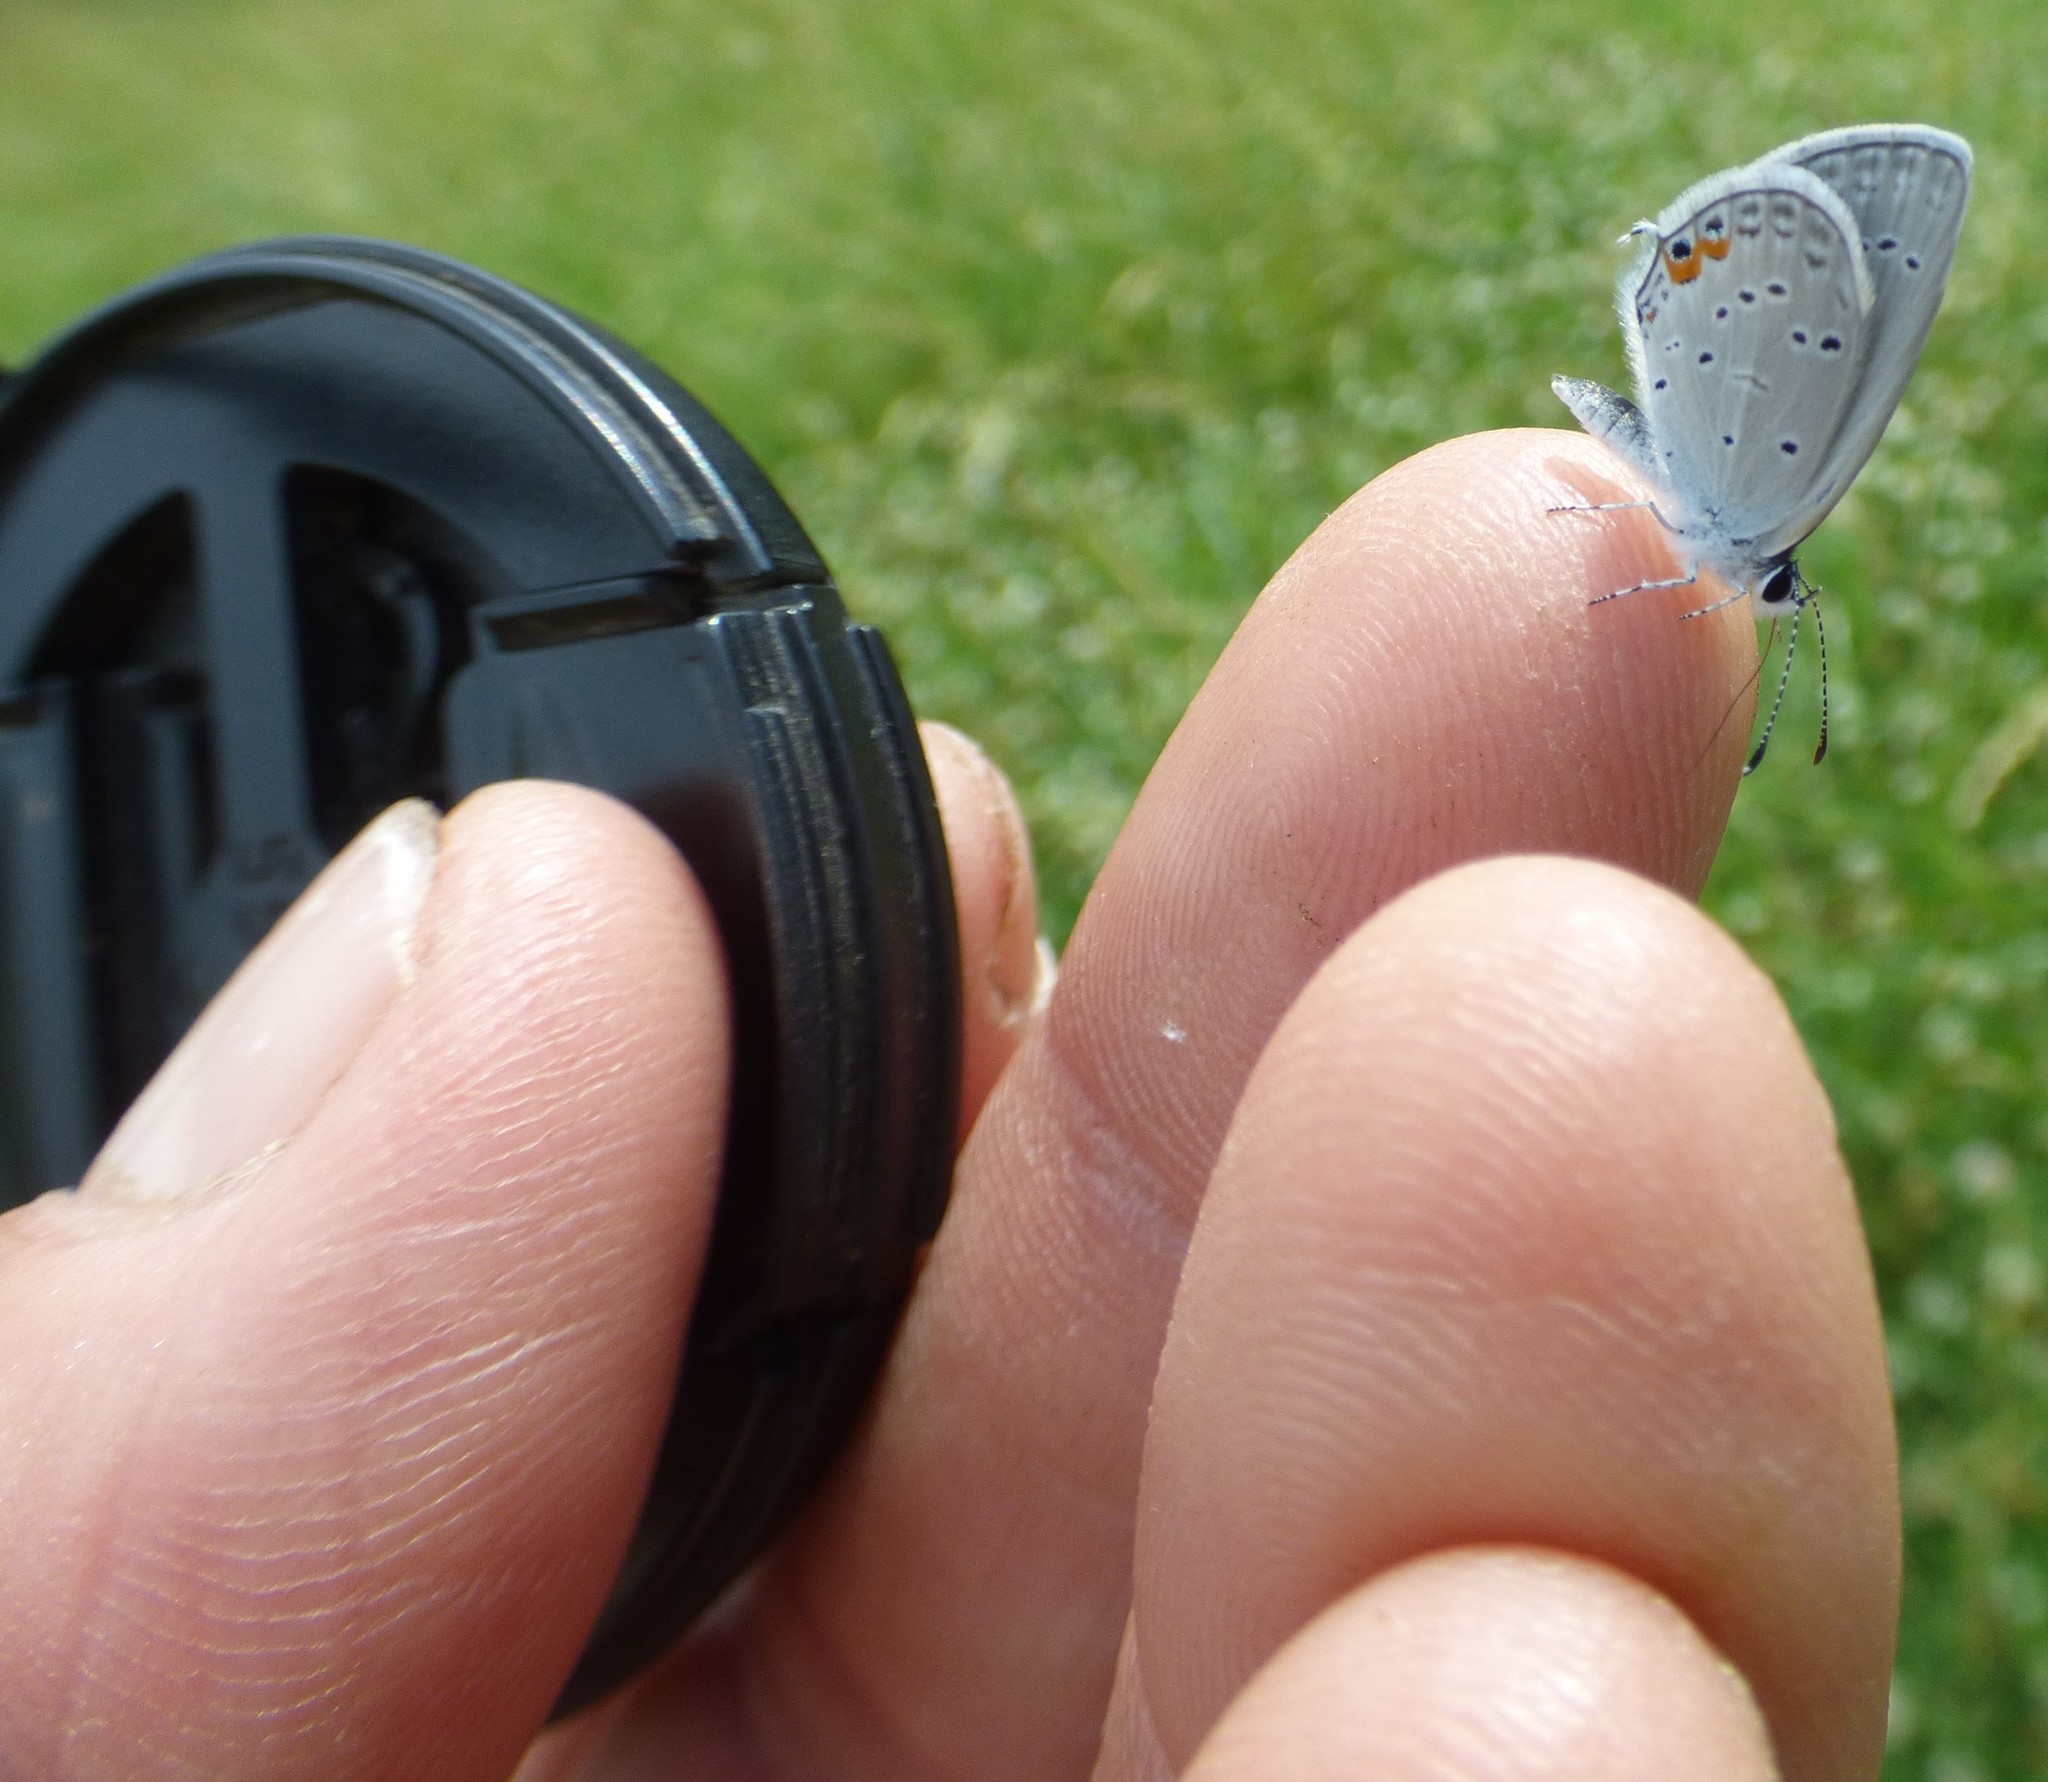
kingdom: Animalia
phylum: Arthropoda
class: Insecta
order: Lepidoptera
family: Lycaenidae
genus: Elkalyce
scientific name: Elkalyce comyntas
